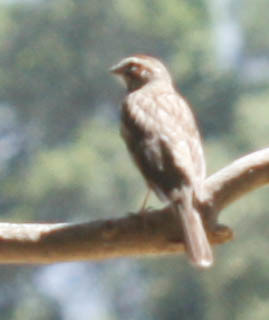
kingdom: Animalia
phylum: Chordata
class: Aves
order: Passeriformes
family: Passerellidae
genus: Chondestes
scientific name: Chondestes grammacus
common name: Lark sparrow
